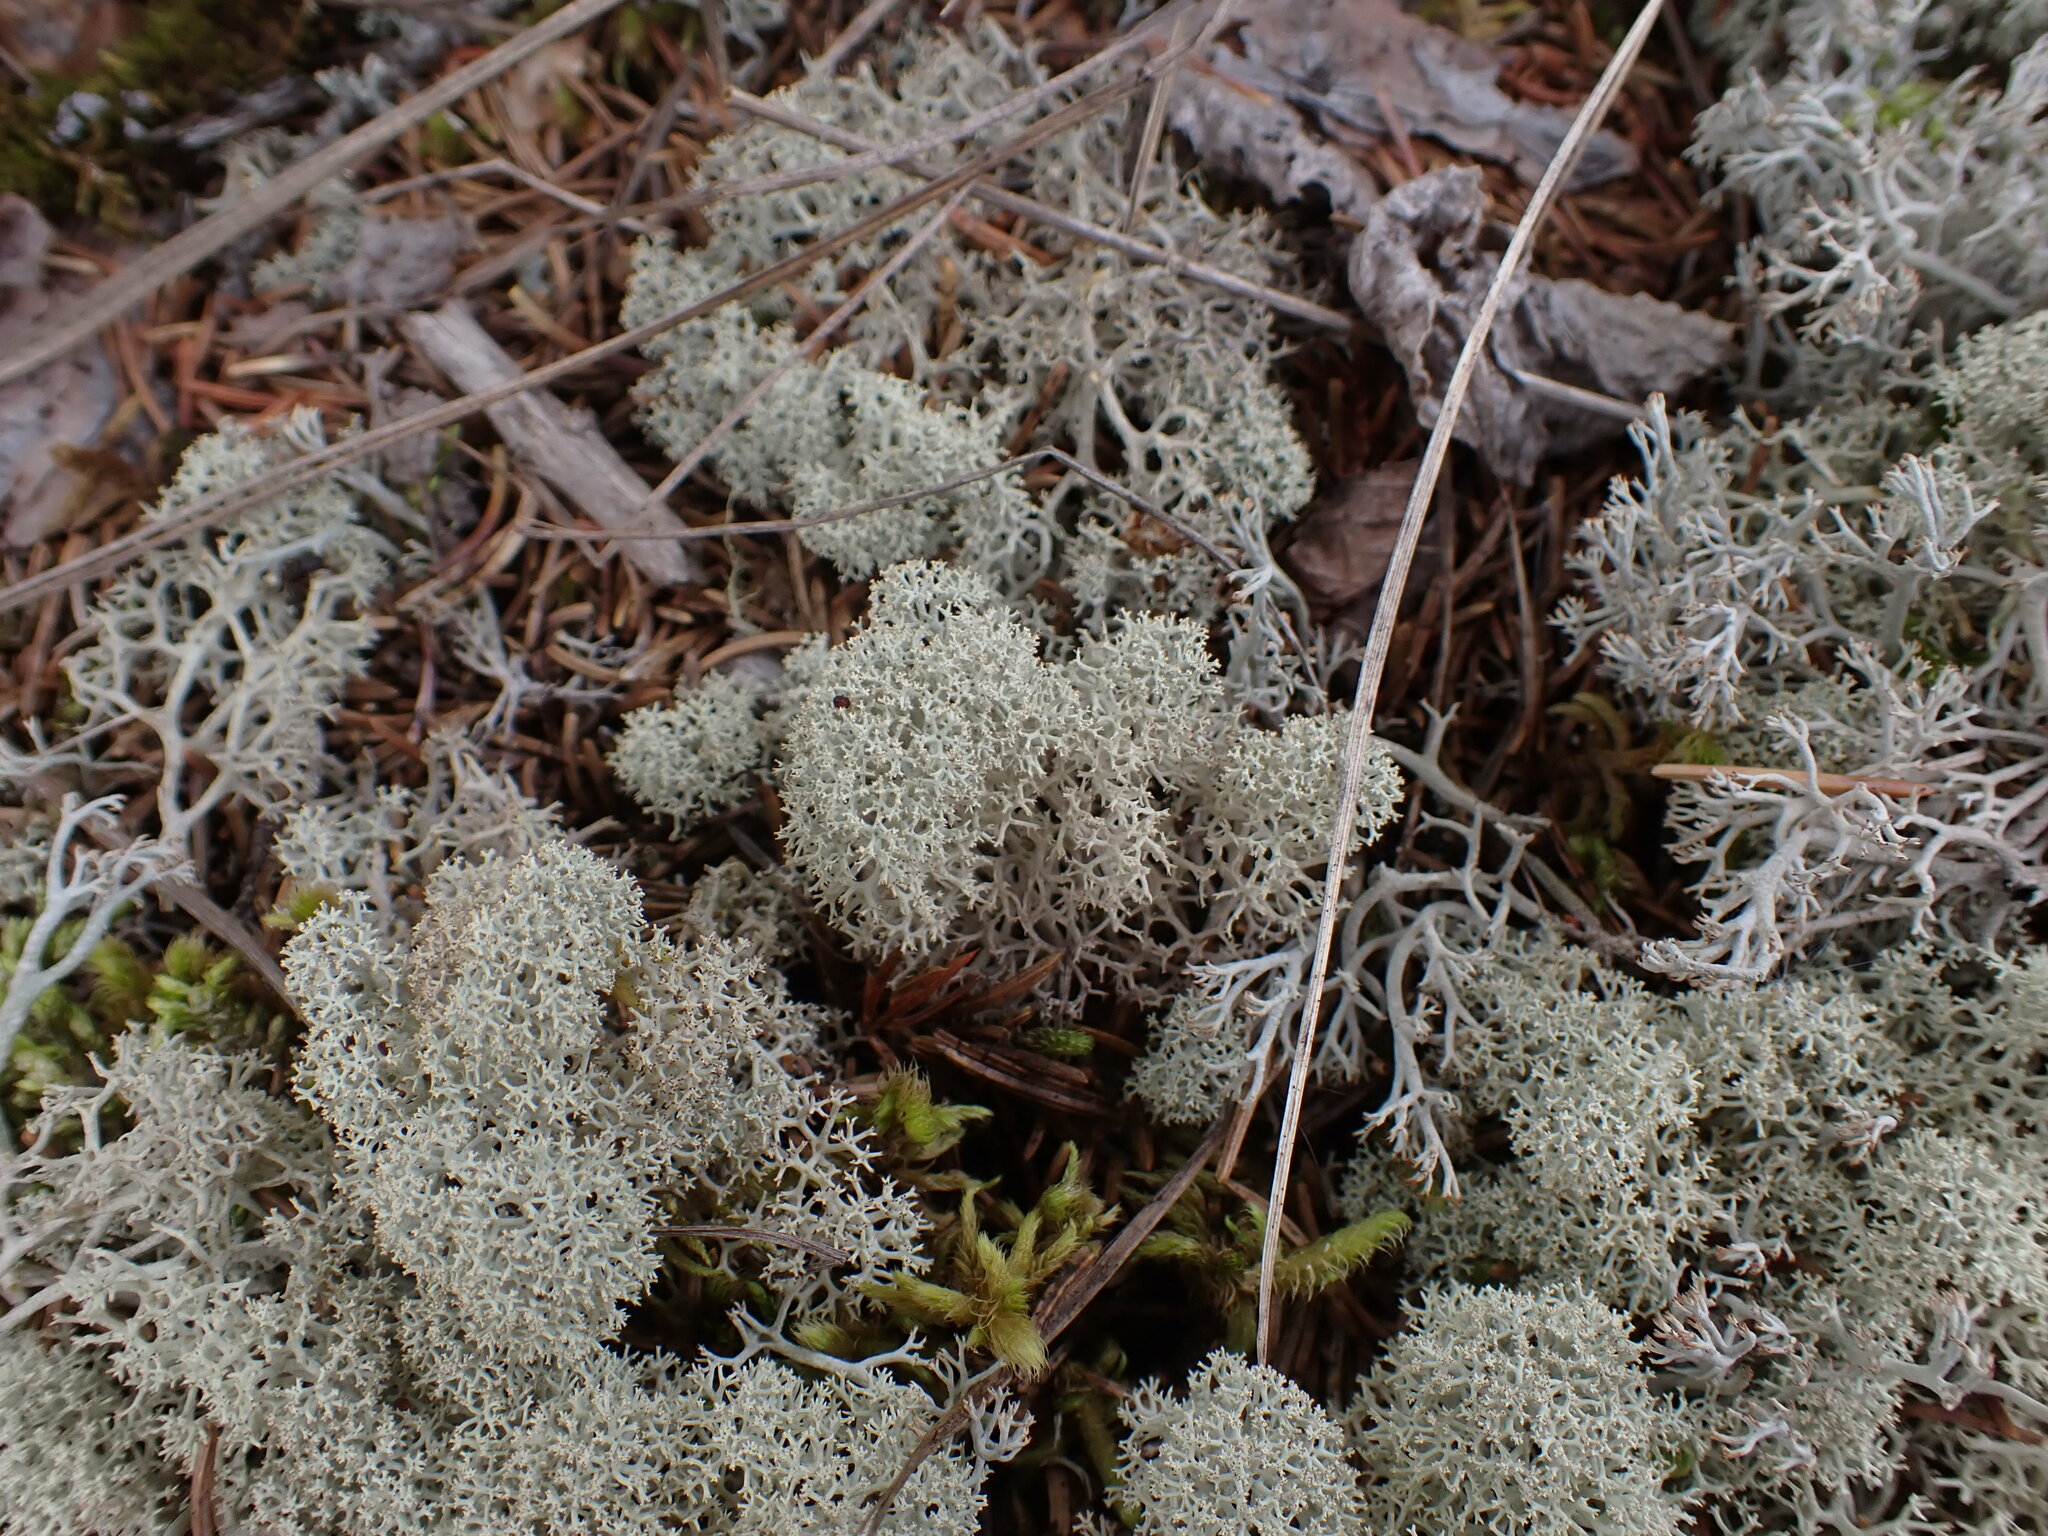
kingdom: Fungi
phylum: Ascomycota
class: Lecanoromycetes
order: Lecanorales
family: Cladoniaceae
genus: Cladonia
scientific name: Cladonia stellaris
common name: Star-tipped reindeer lichen
